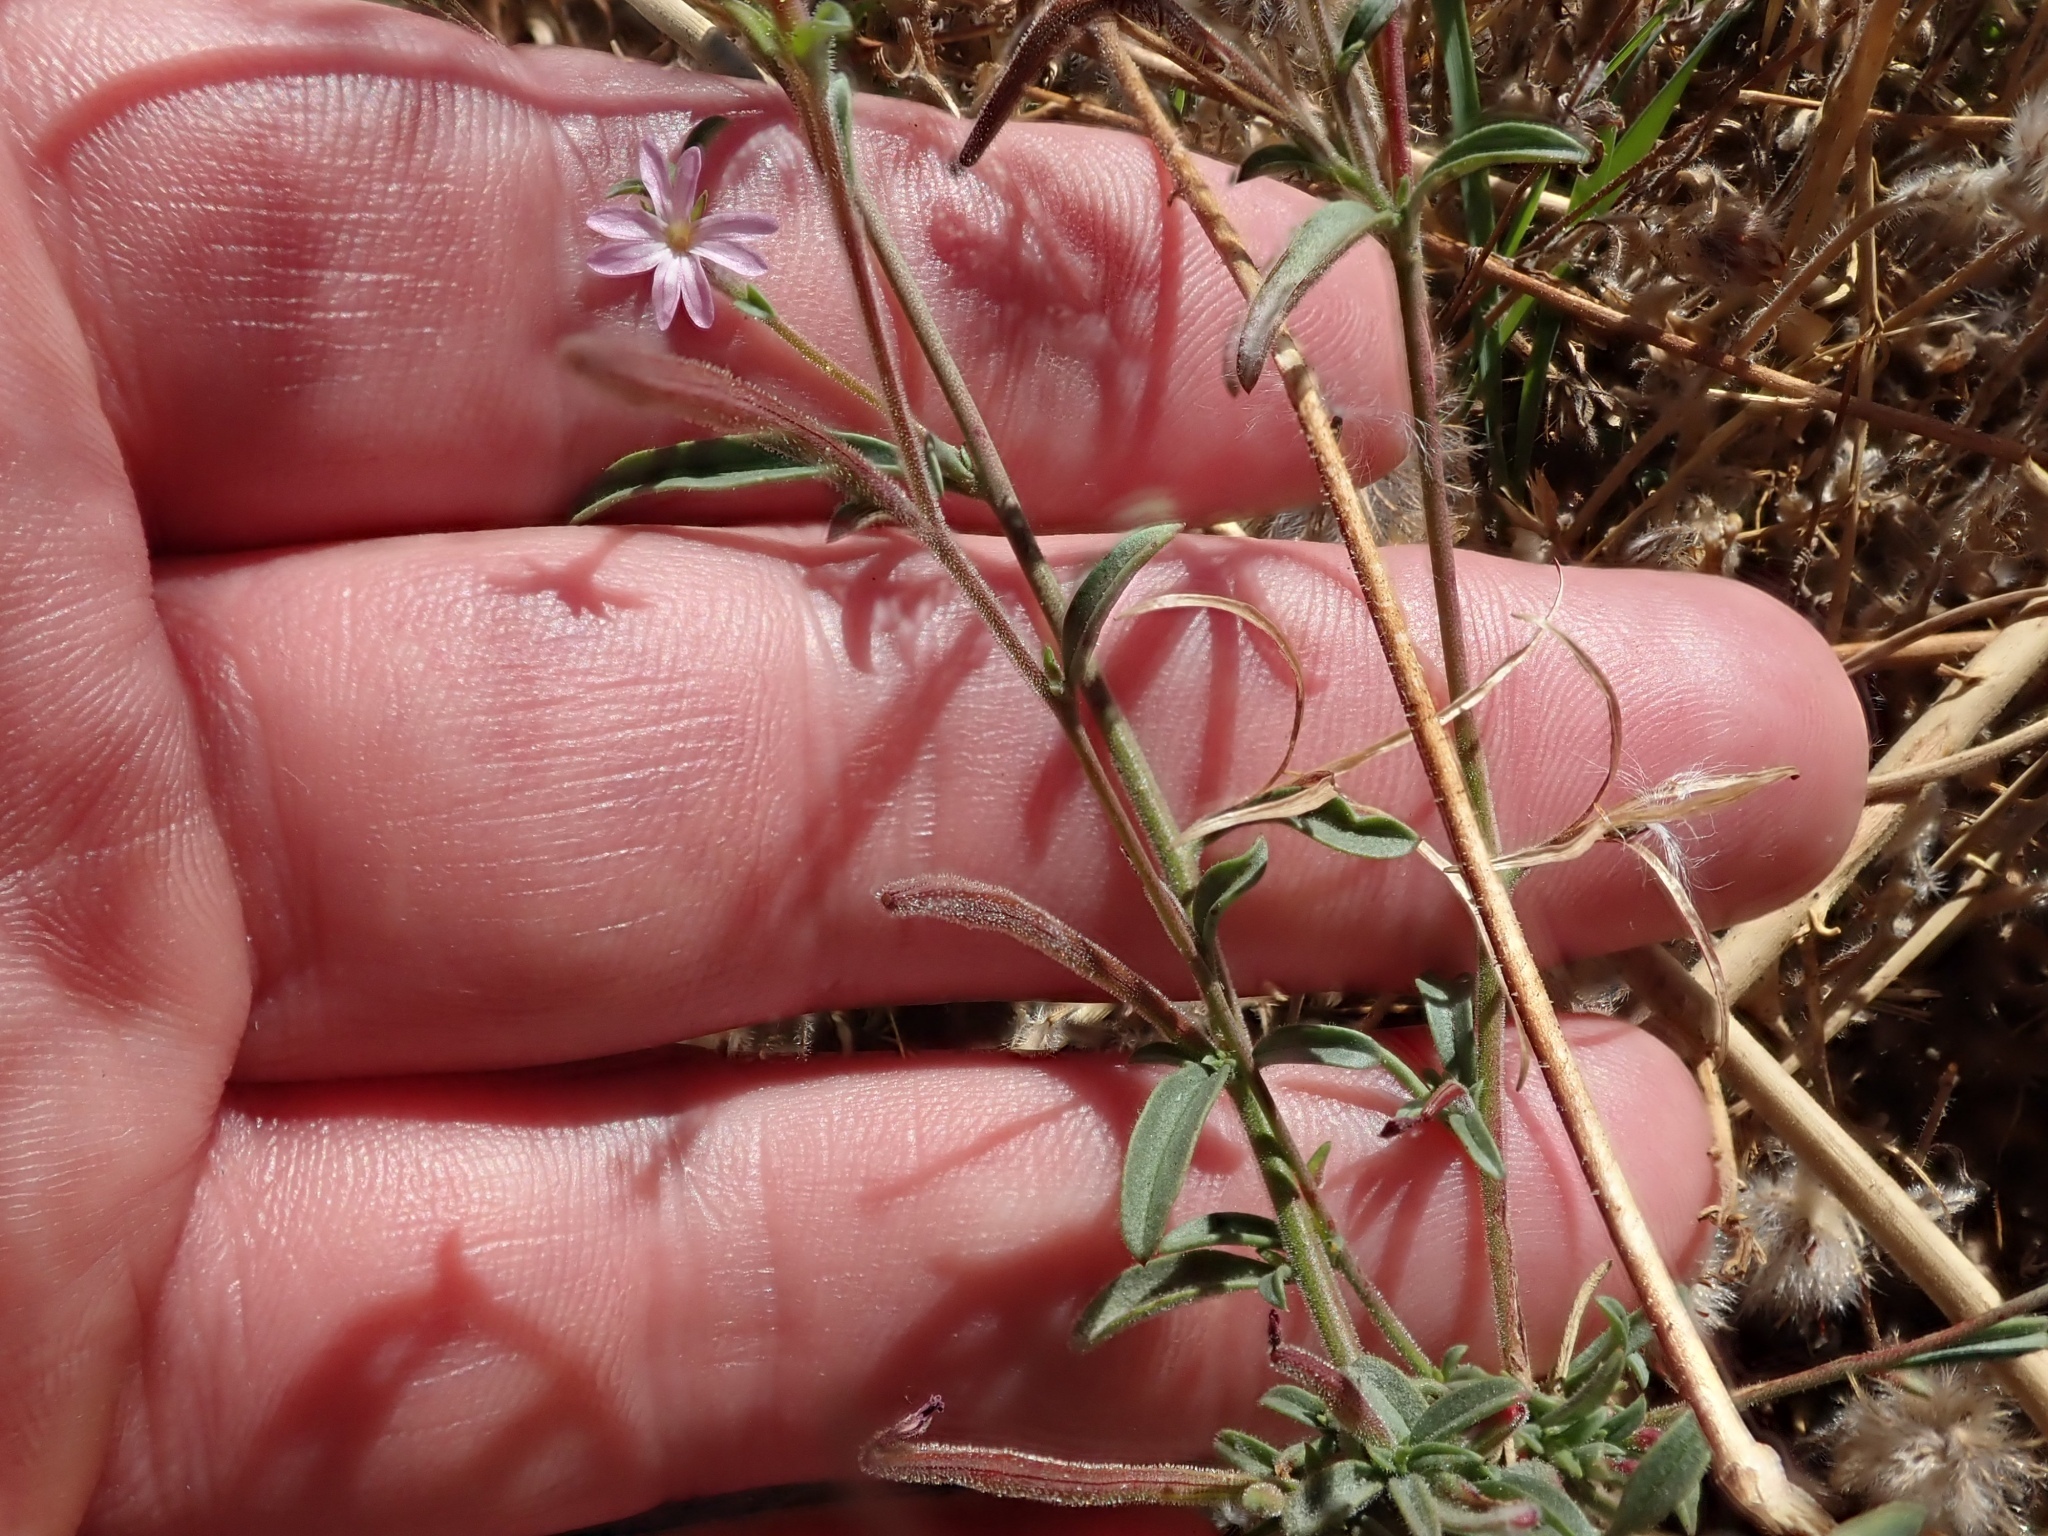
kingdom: Plantae
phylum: Tracheophyta
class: Magnoliopsida
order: Myrtales
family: Onagraceae
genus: Epilobium
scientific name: Epilobium brachycarpum
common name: Annual willowherb
